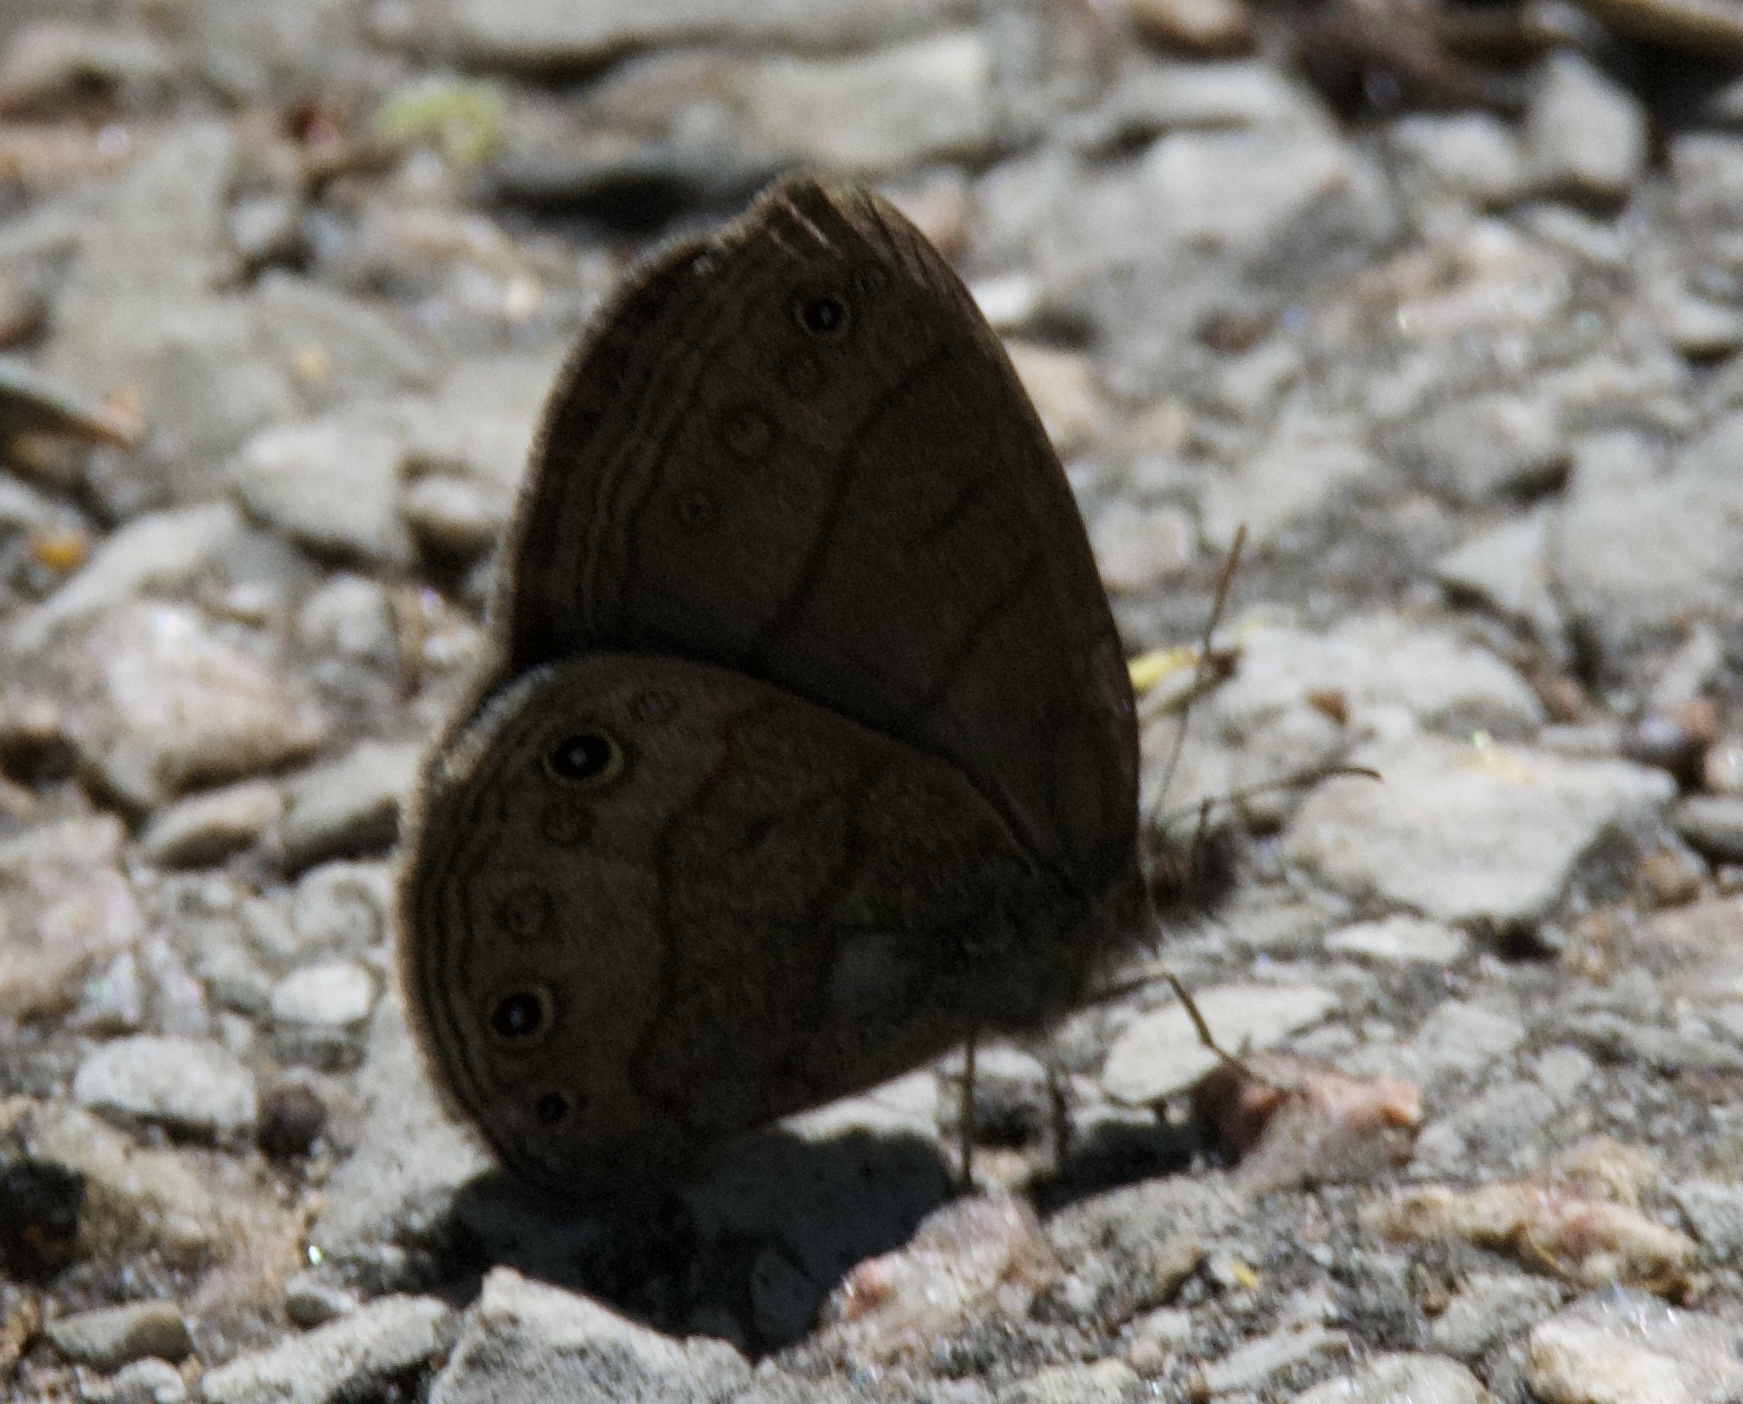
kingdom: Animalia
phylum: Arthropoda
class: Insecta
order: Lepidoptera
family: Nymphalidae
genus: Hermeuptychia
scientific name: Hermeuptychia hermes
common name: Hermes satyr
